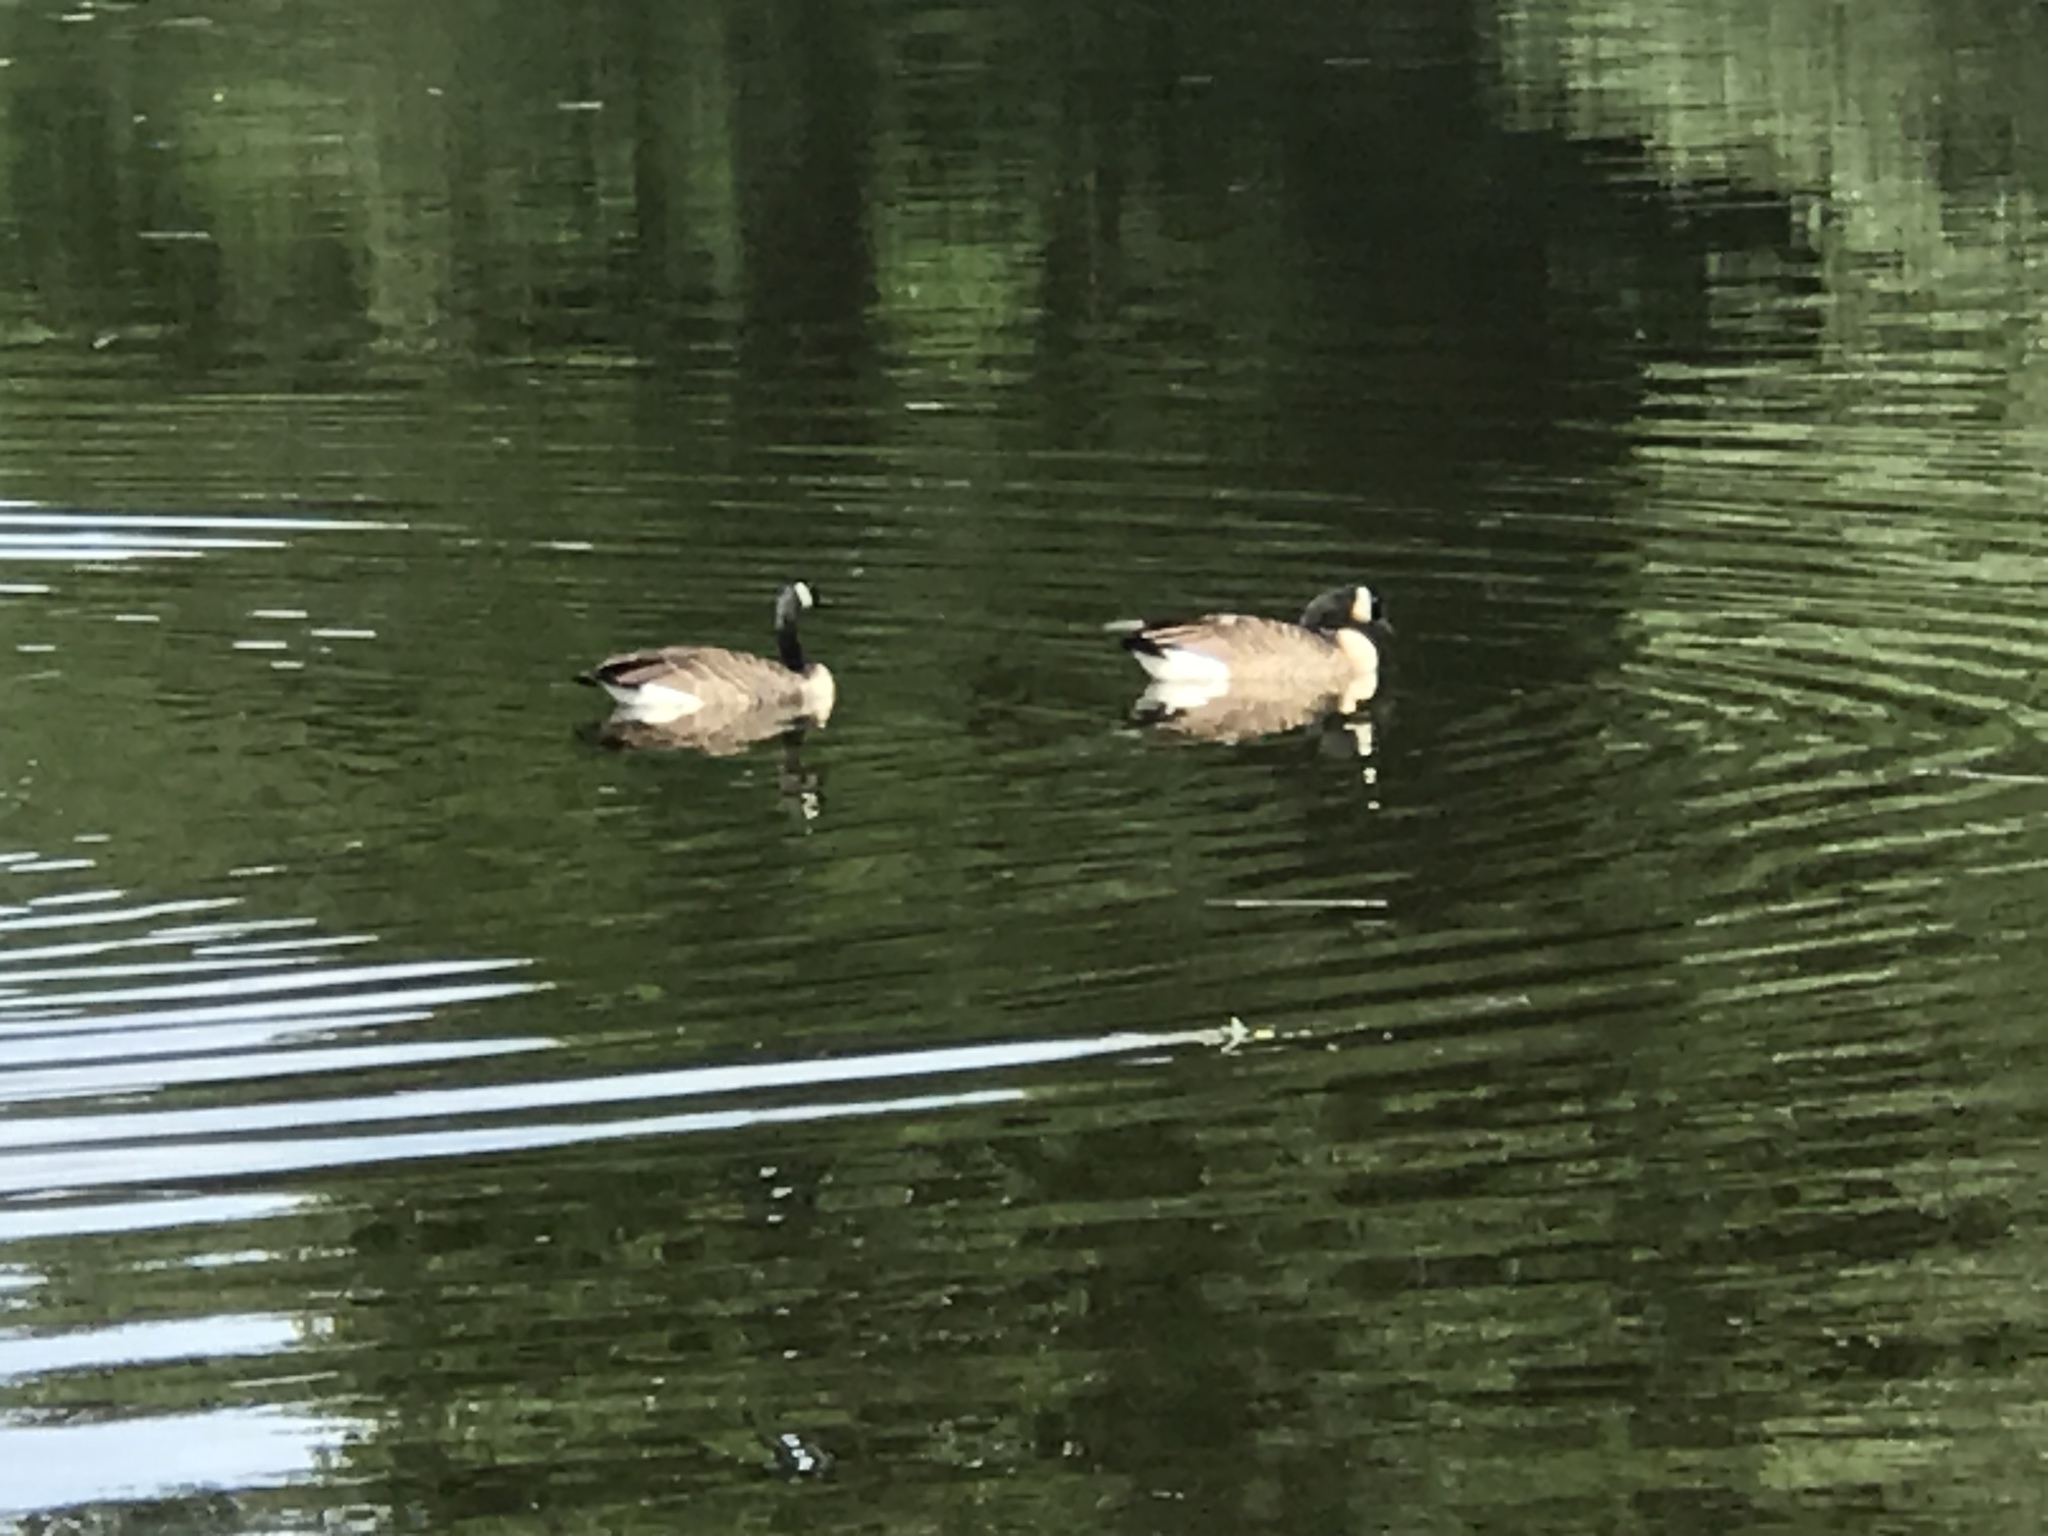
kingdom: Animalia
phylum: Chordata
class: Aves
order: Anseriformes
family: Anatidae
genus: Branta
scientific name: Branta canadensis
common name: Canada goose
